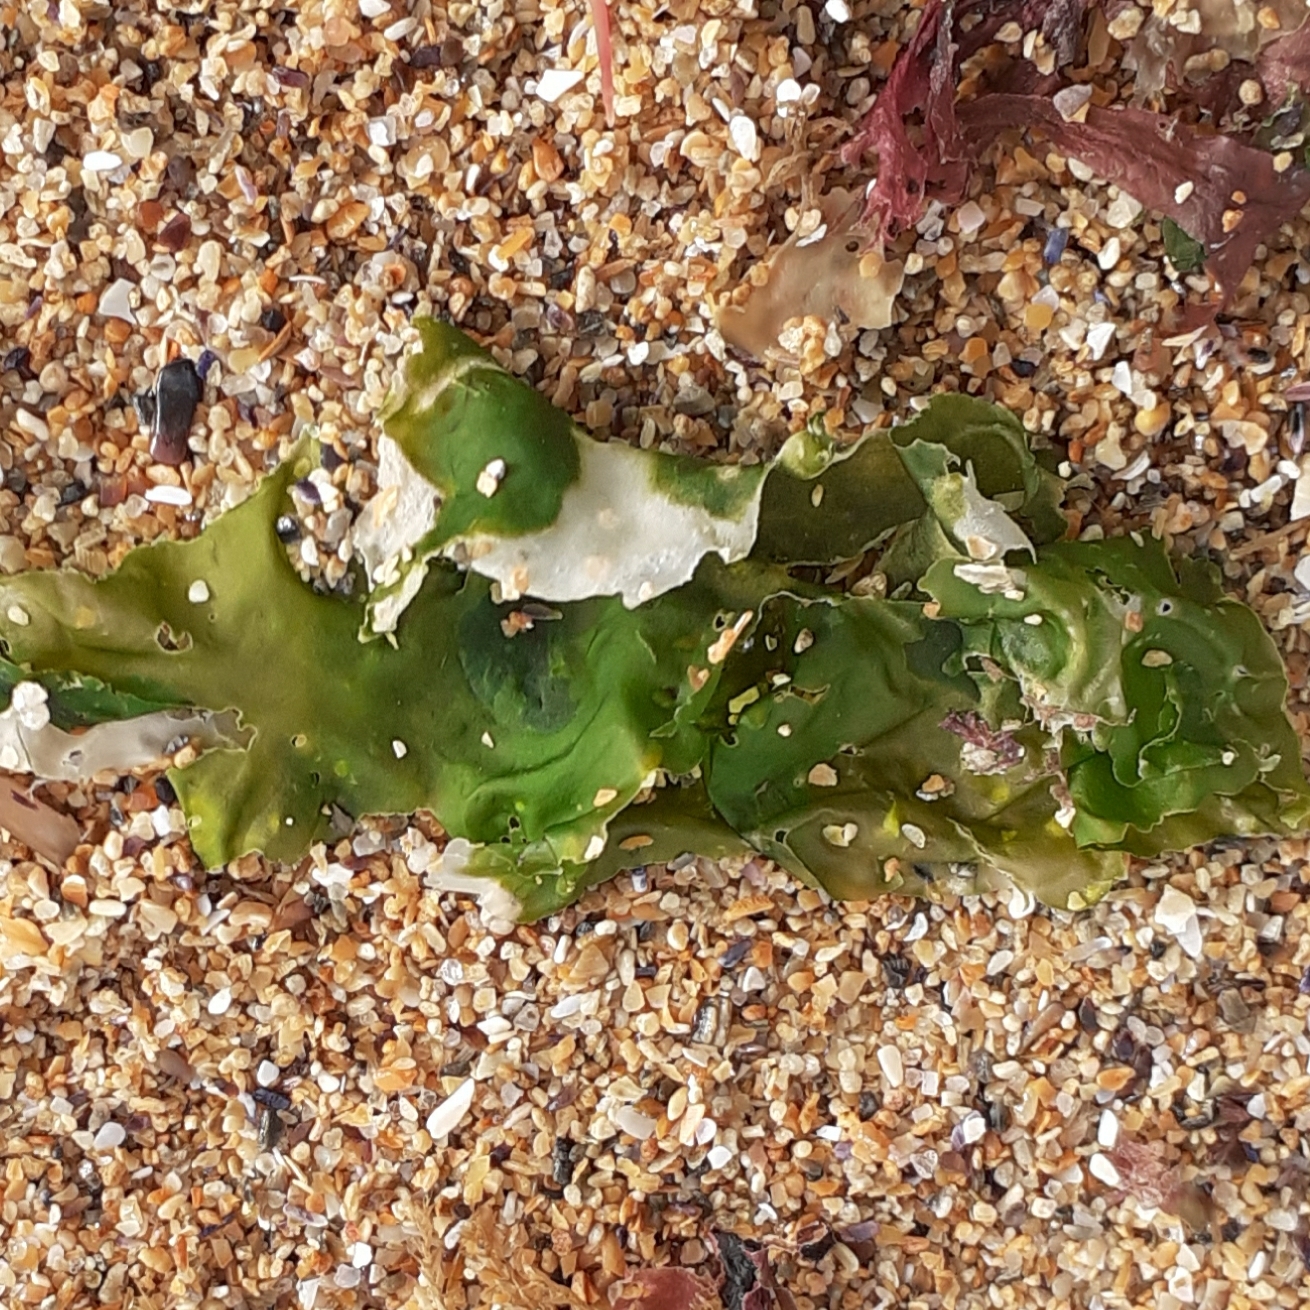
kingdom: Plantae
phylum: Chlorophyta
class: Ulvophyceae
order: Ulvales
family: Ulvaceae
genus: Ulva
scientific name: Ulva lactuca
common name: Sea lettuce
